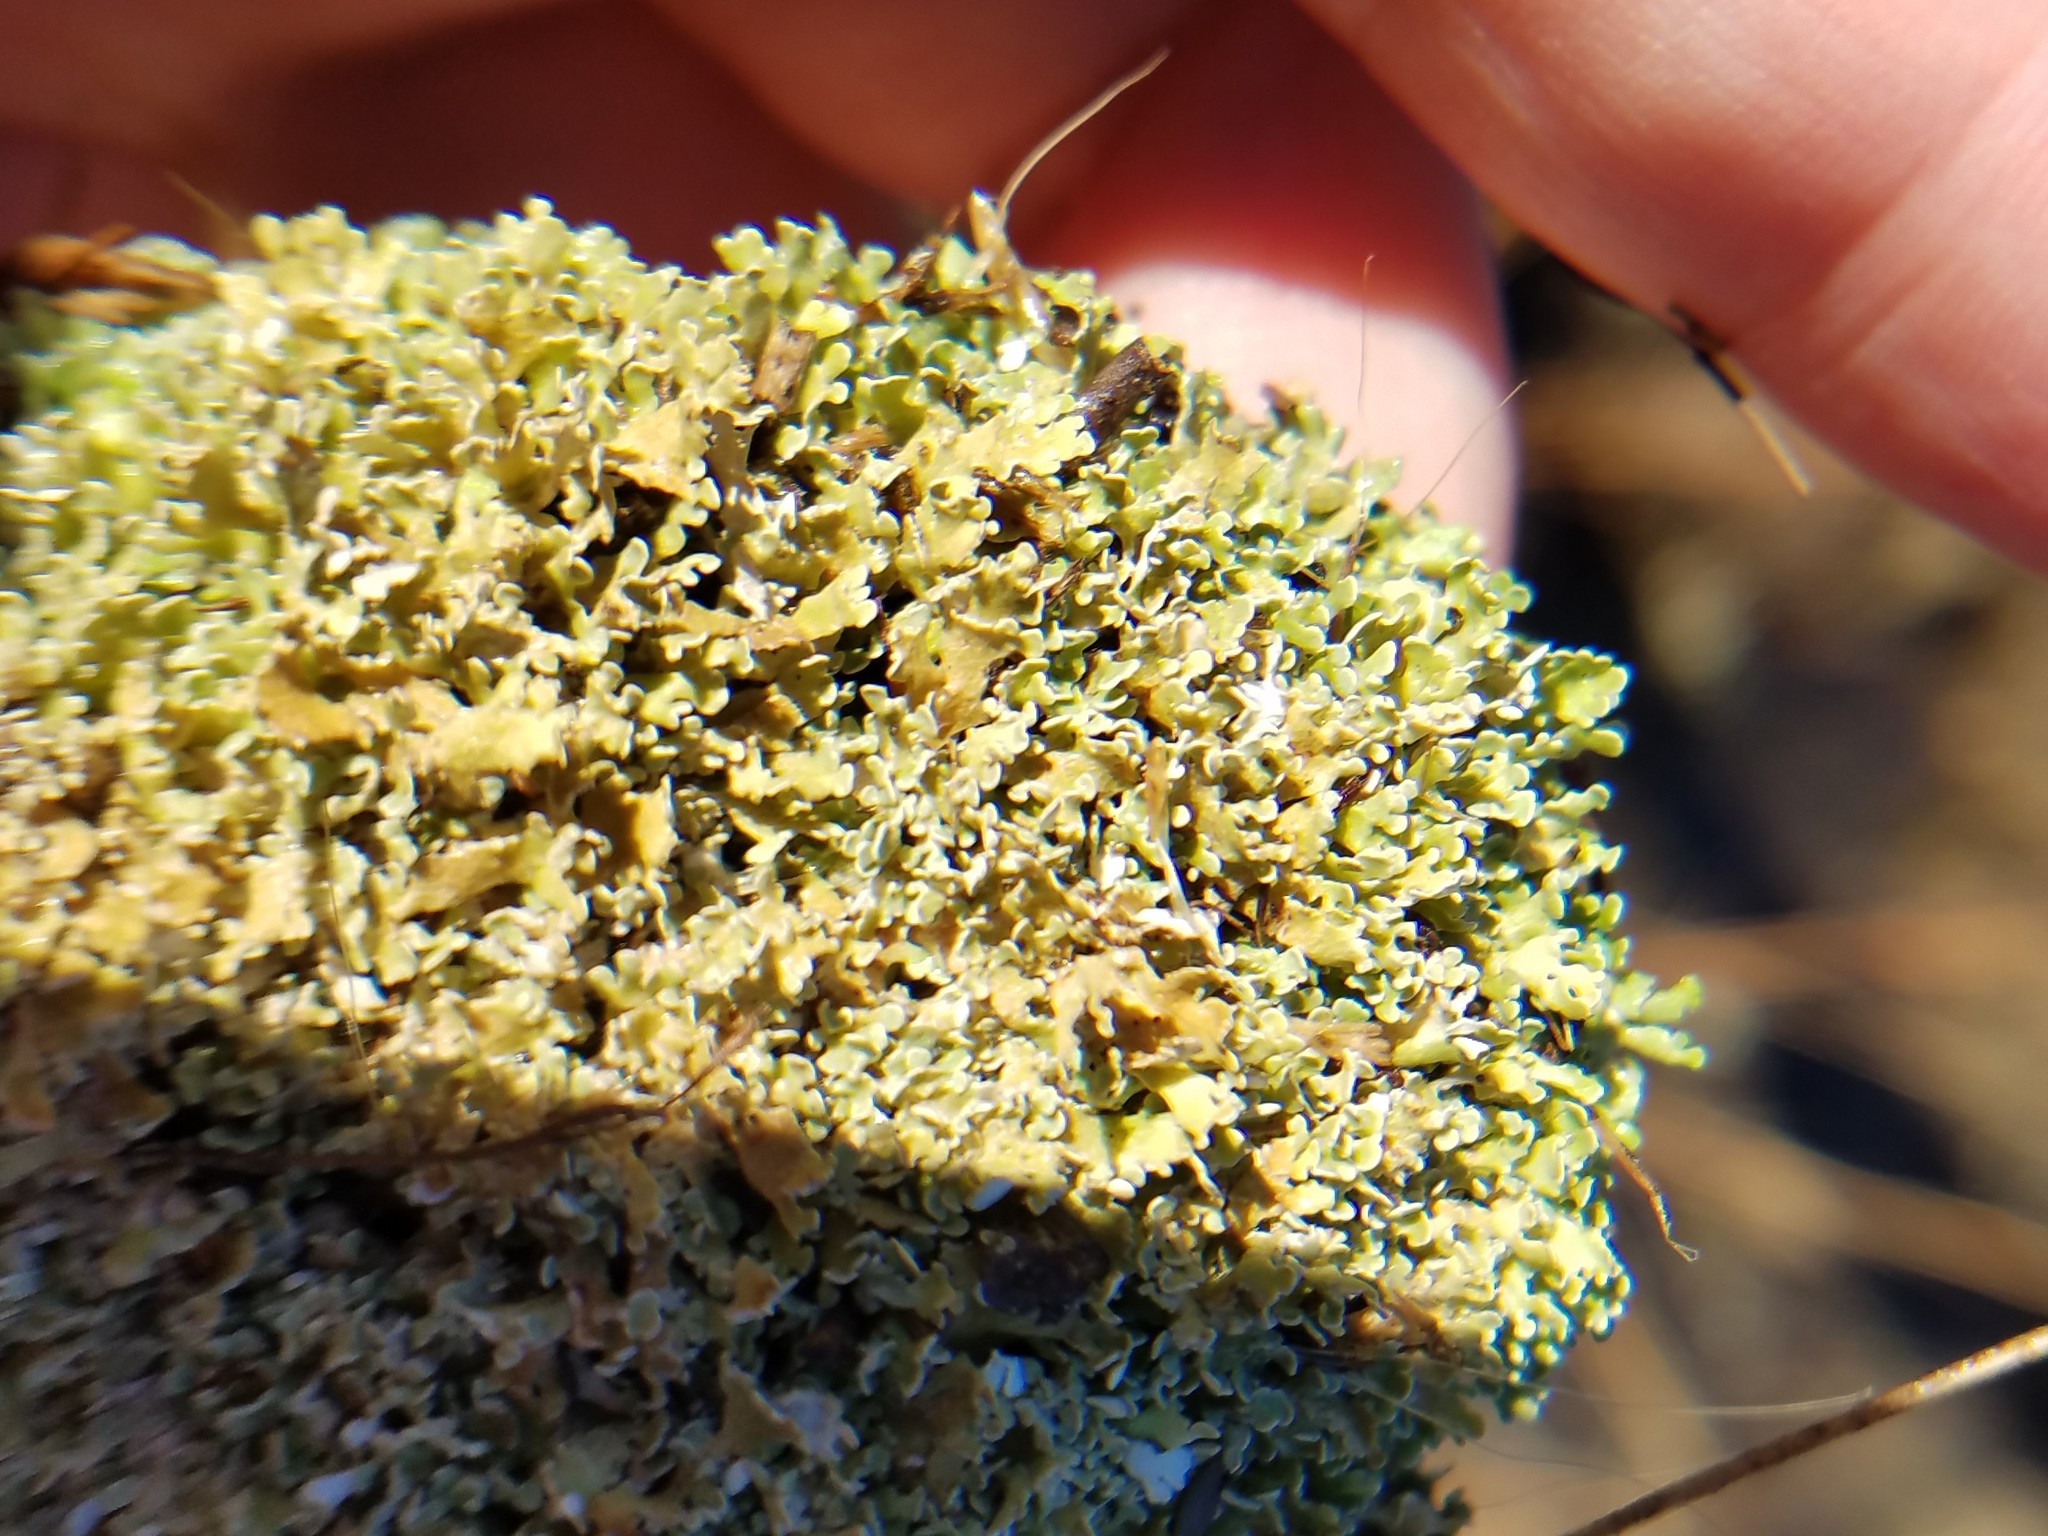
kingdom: Fungi
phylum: Ascomycota
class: Lecanoromycetes
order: Lecanorales
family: Cladoniaceae
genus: Cladonia
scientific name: Cladonia strepsilis
